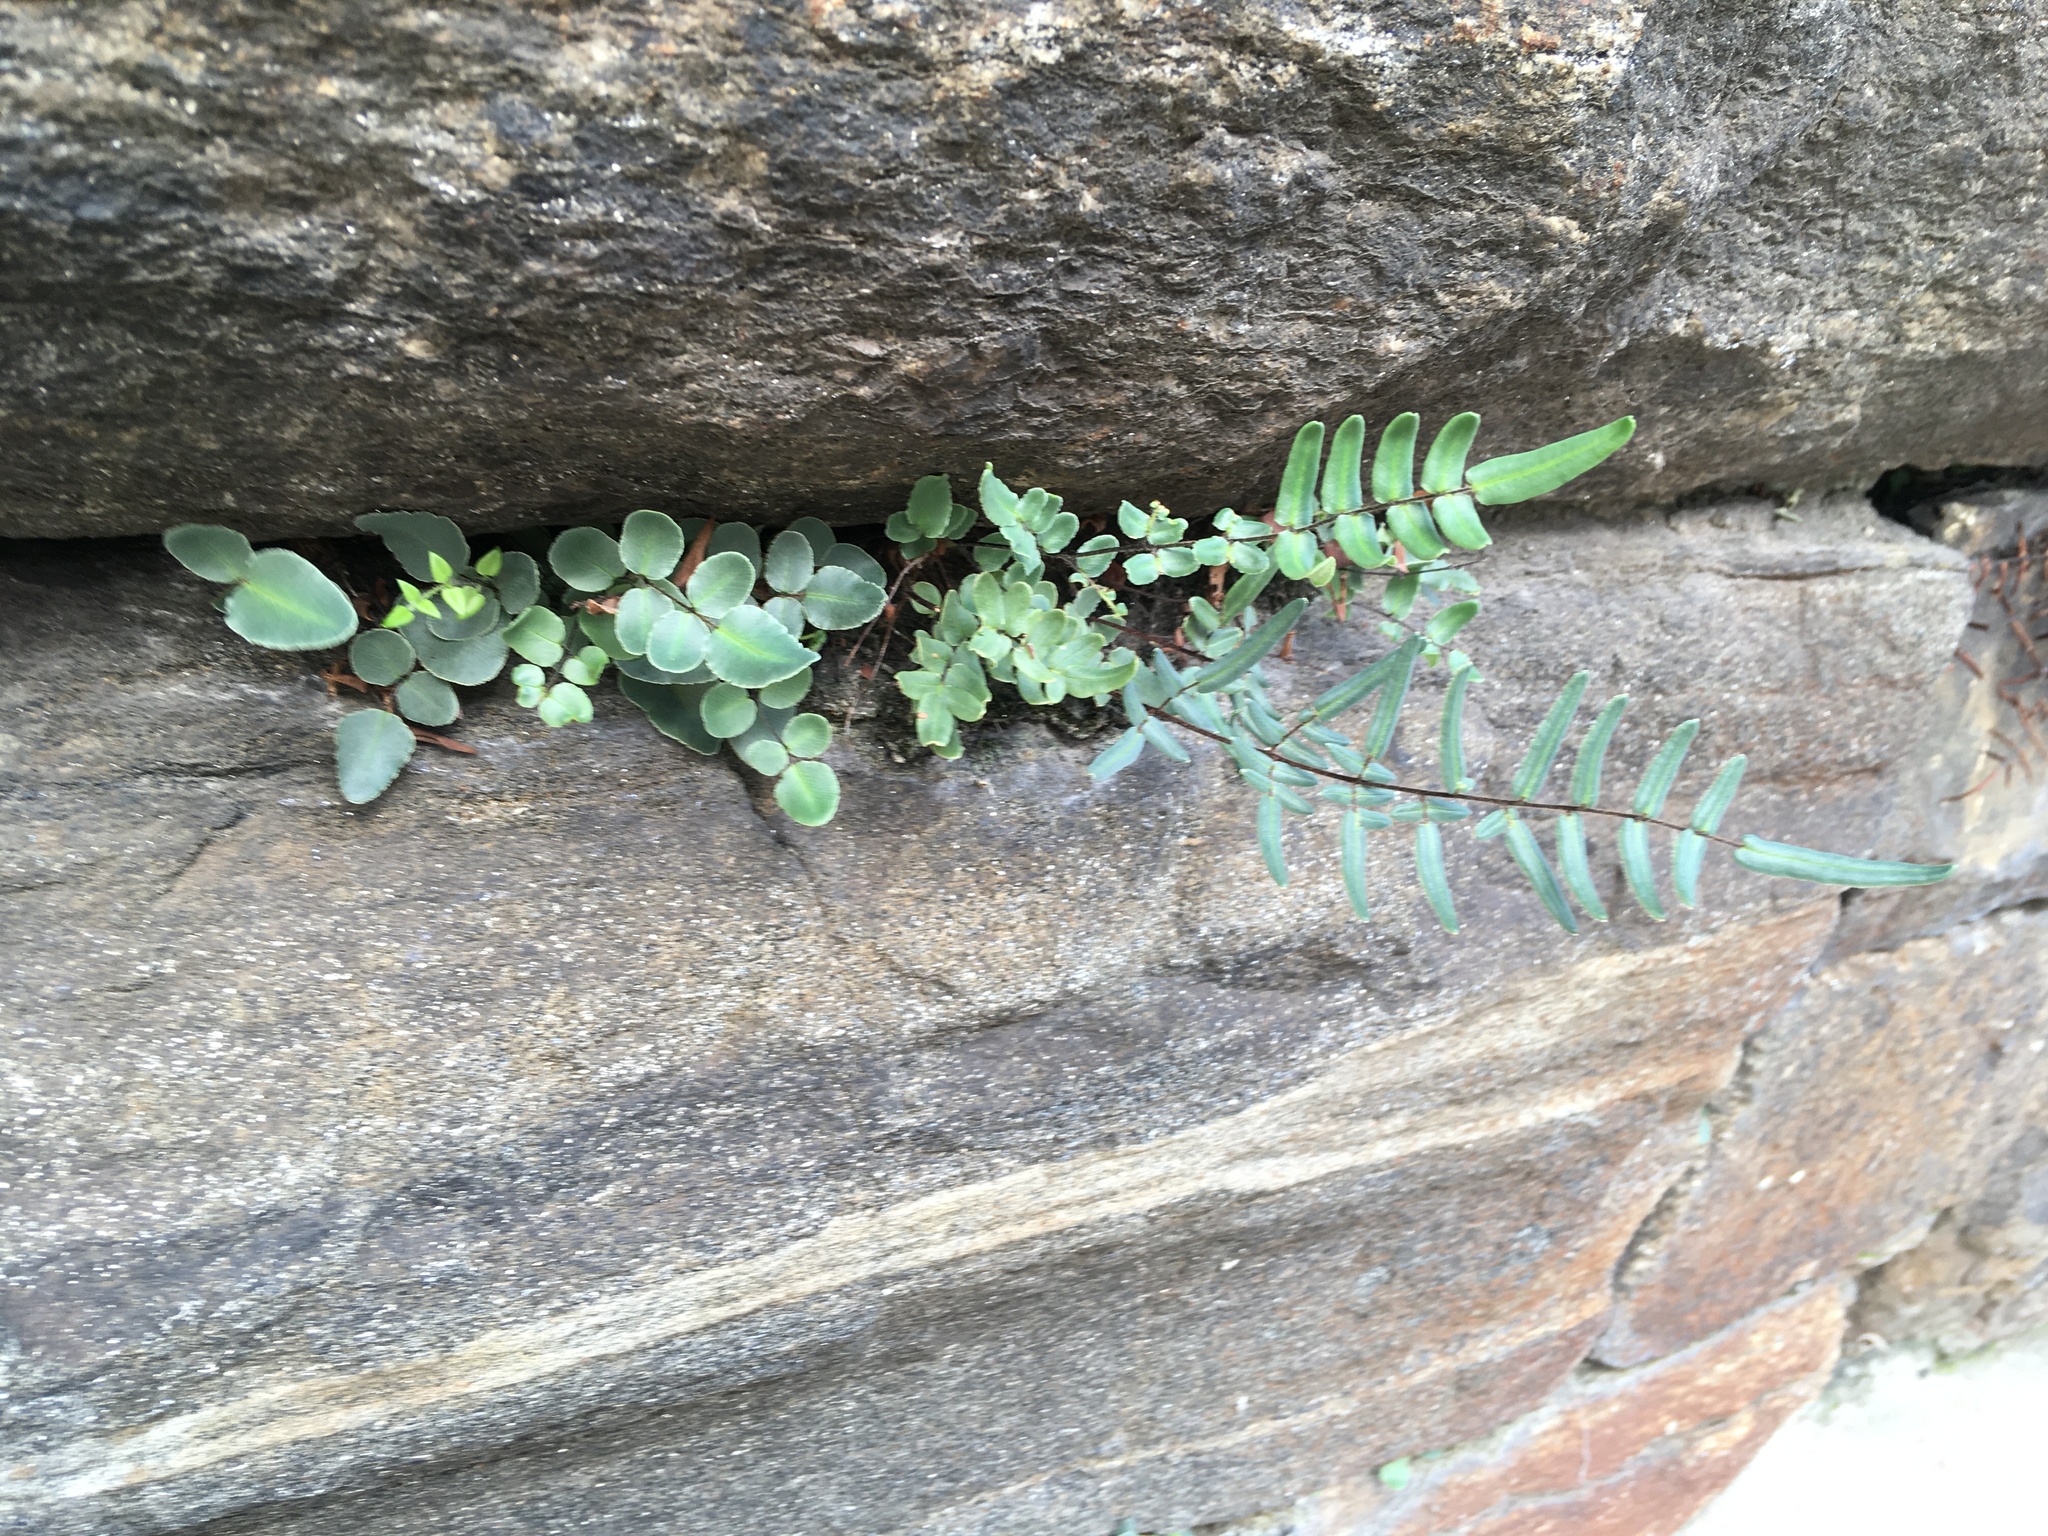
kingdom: Plantae
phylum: Tracheophyta
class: Polypodiopsida
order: Polypodiales
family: Pteridaceae
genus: Pellaea
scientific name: Pellaea atropurpurea
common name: Hairy cliffbrake
